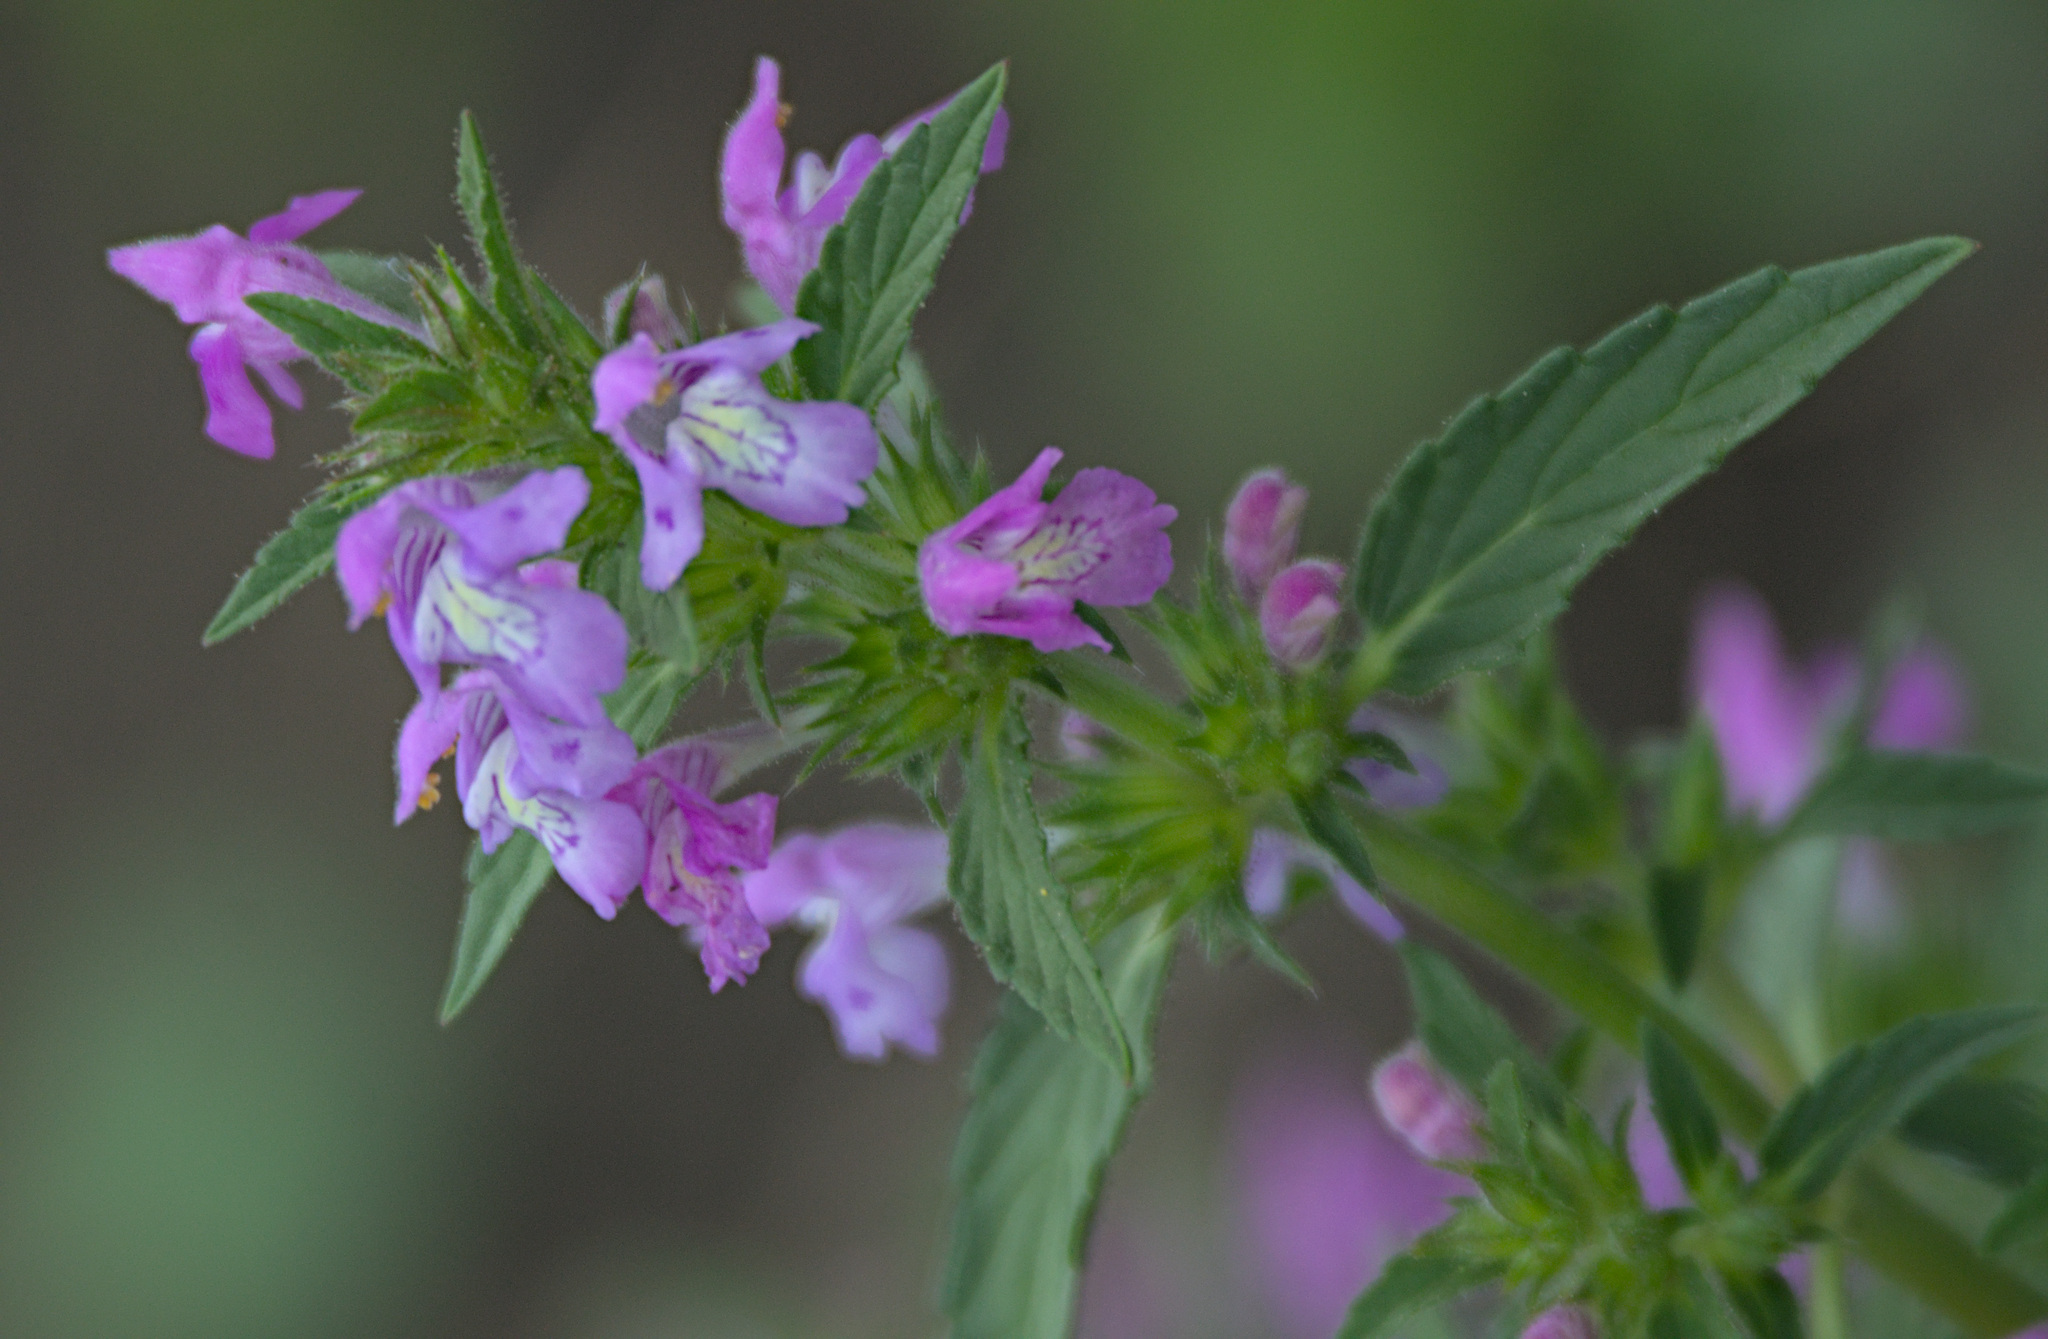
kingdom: Plantae
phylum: Tracheophyta
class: Magnoliopsida
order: Lamiales
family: Lamiaceae
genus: Galeopsis
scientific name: Galeopsis ladanum
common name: Broad-leaved hemp-nettle
